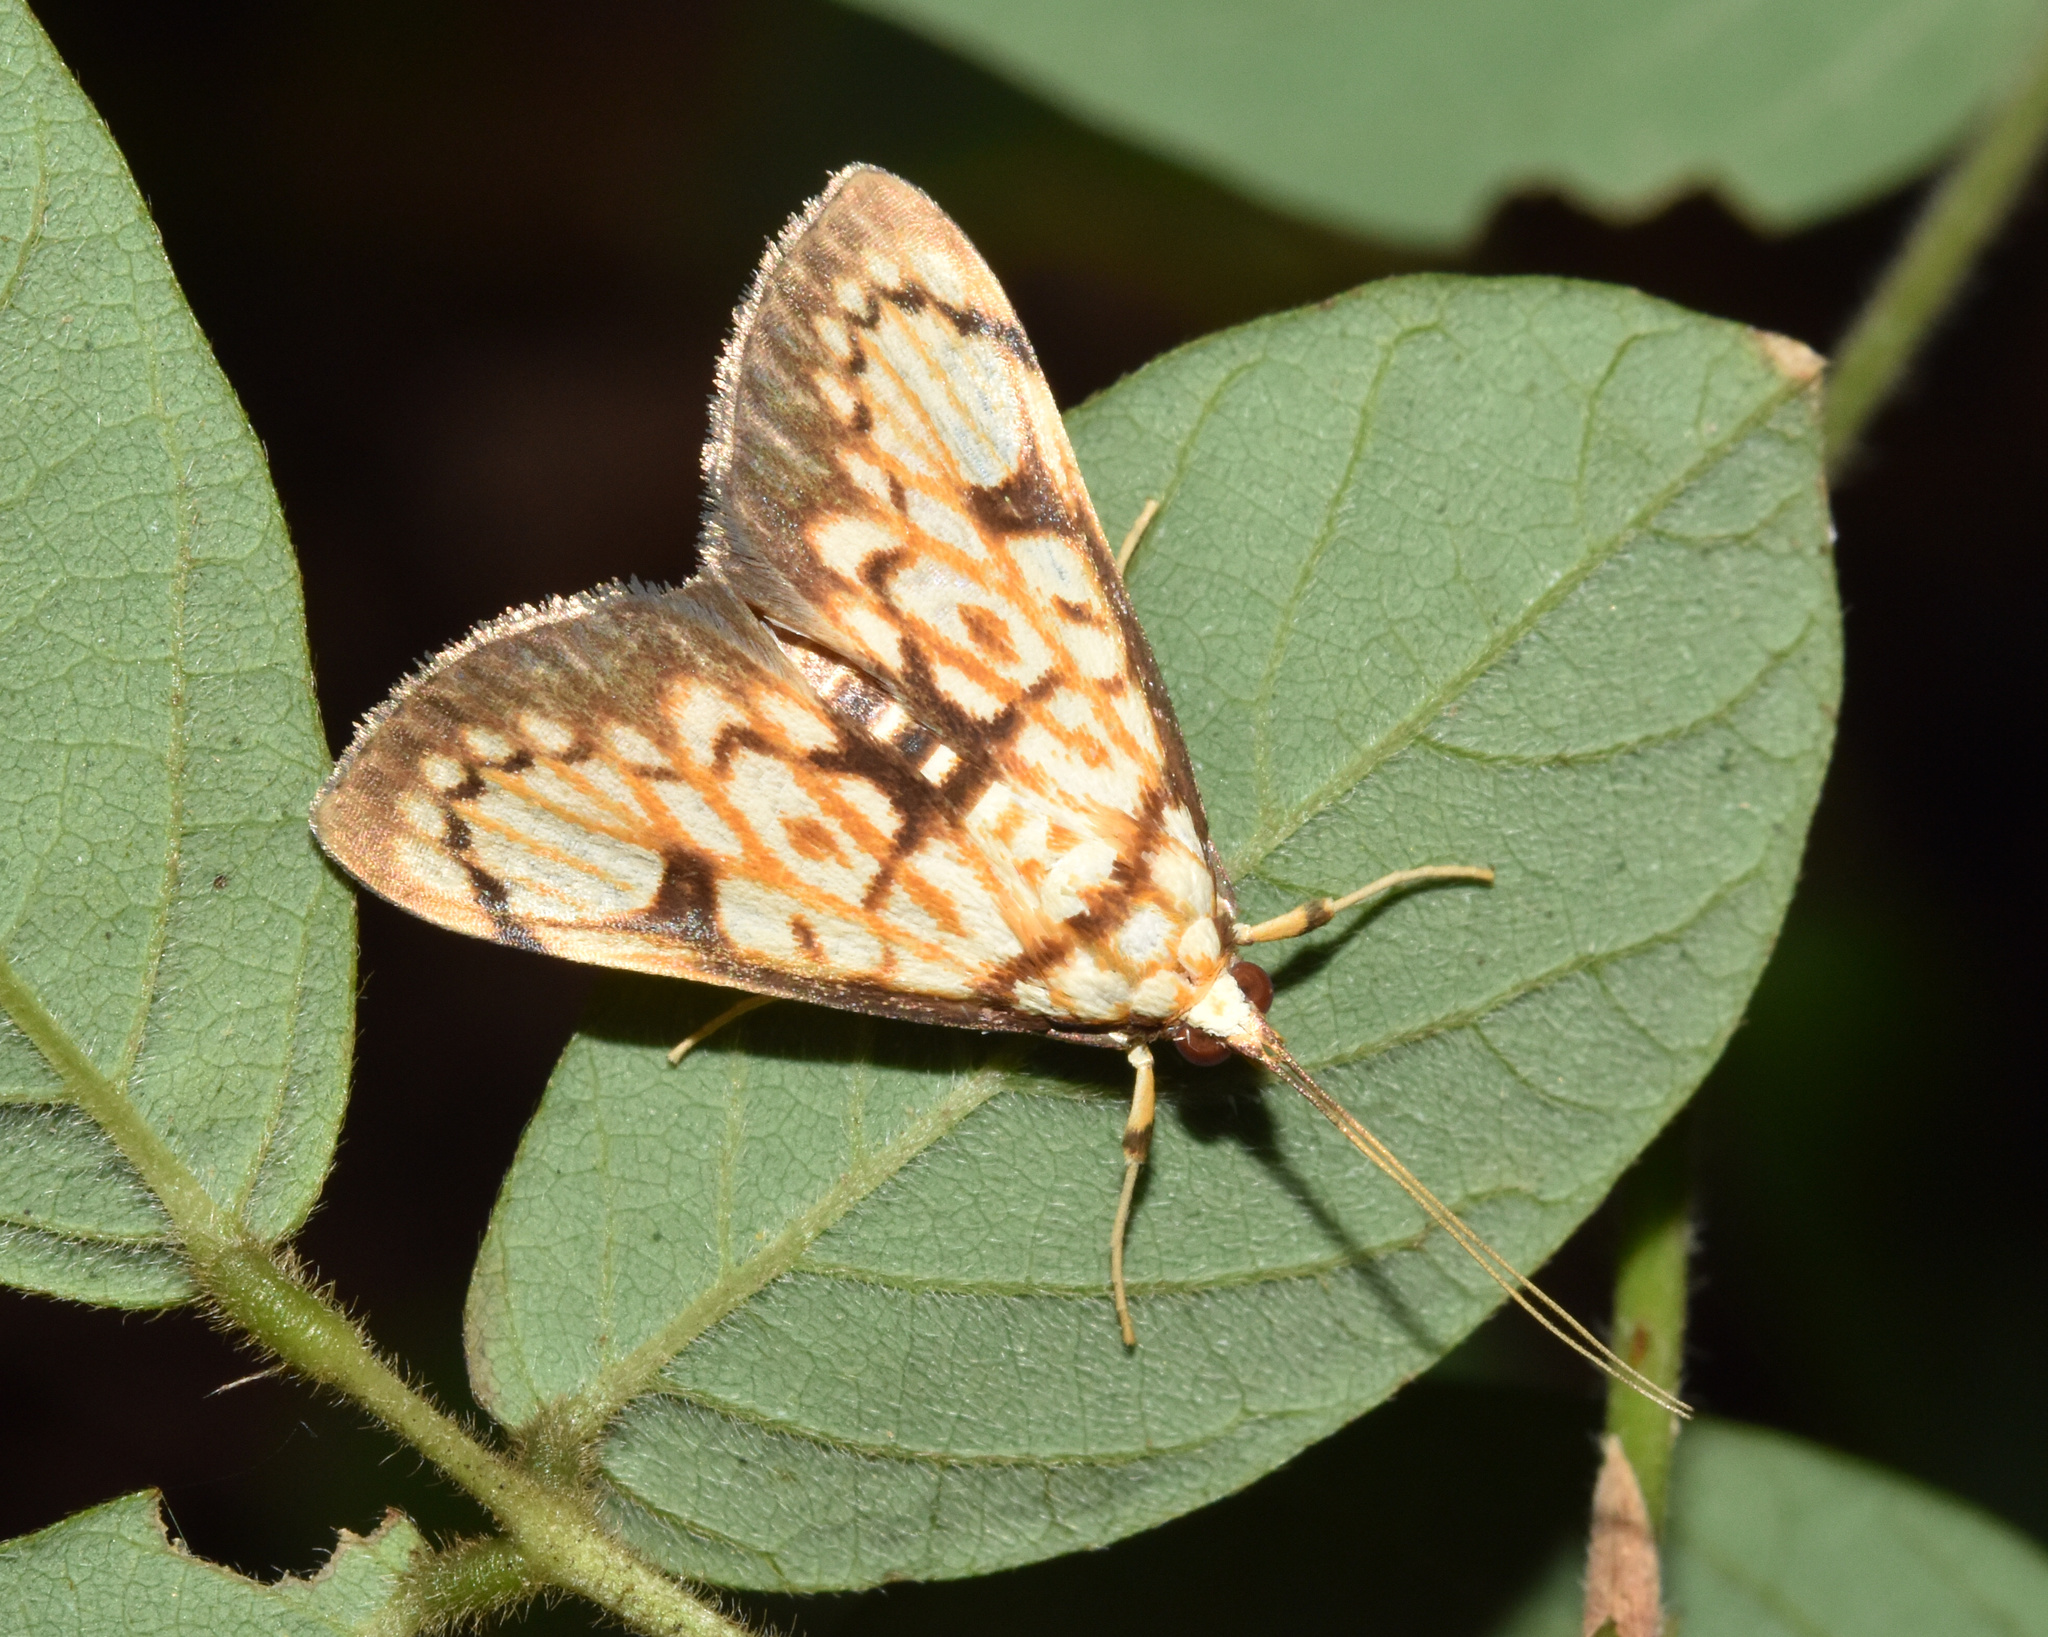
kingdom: Animalia
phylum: Arthropoda
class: Insecta
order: Lepidoptera
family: Crambidae
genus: Chalcidoptera
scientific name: Chalcidoptera rufilinealis
